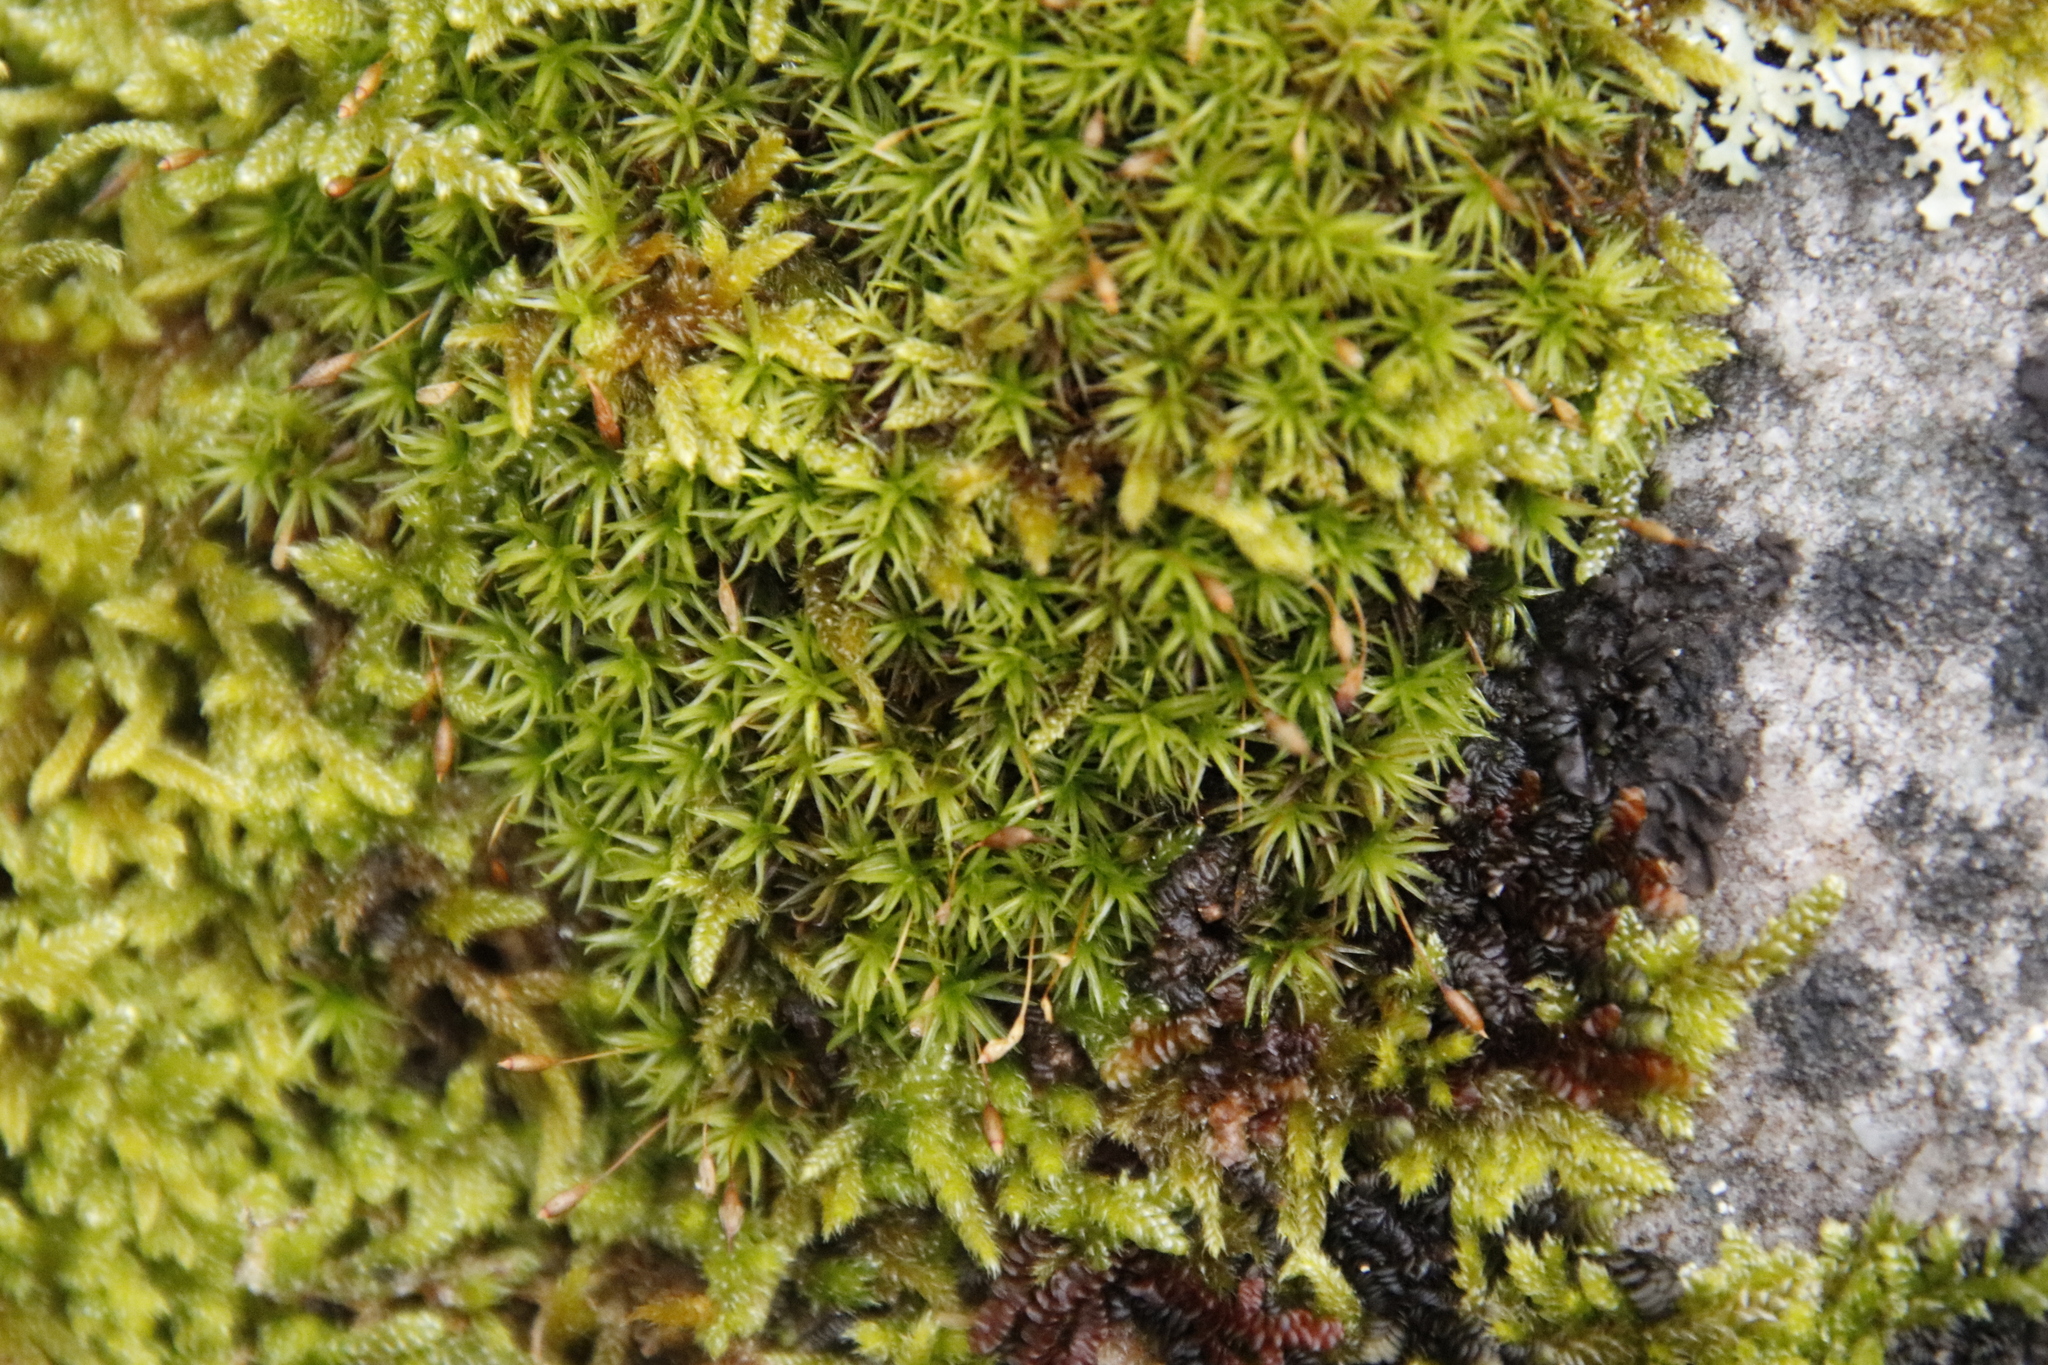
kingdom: Plantae
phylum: Bryophyta
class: Bryopsida
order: Grimmiales
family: Ptychomitriaceae
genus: Ptychomitrium
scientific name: Ptychomitrium crispatum
